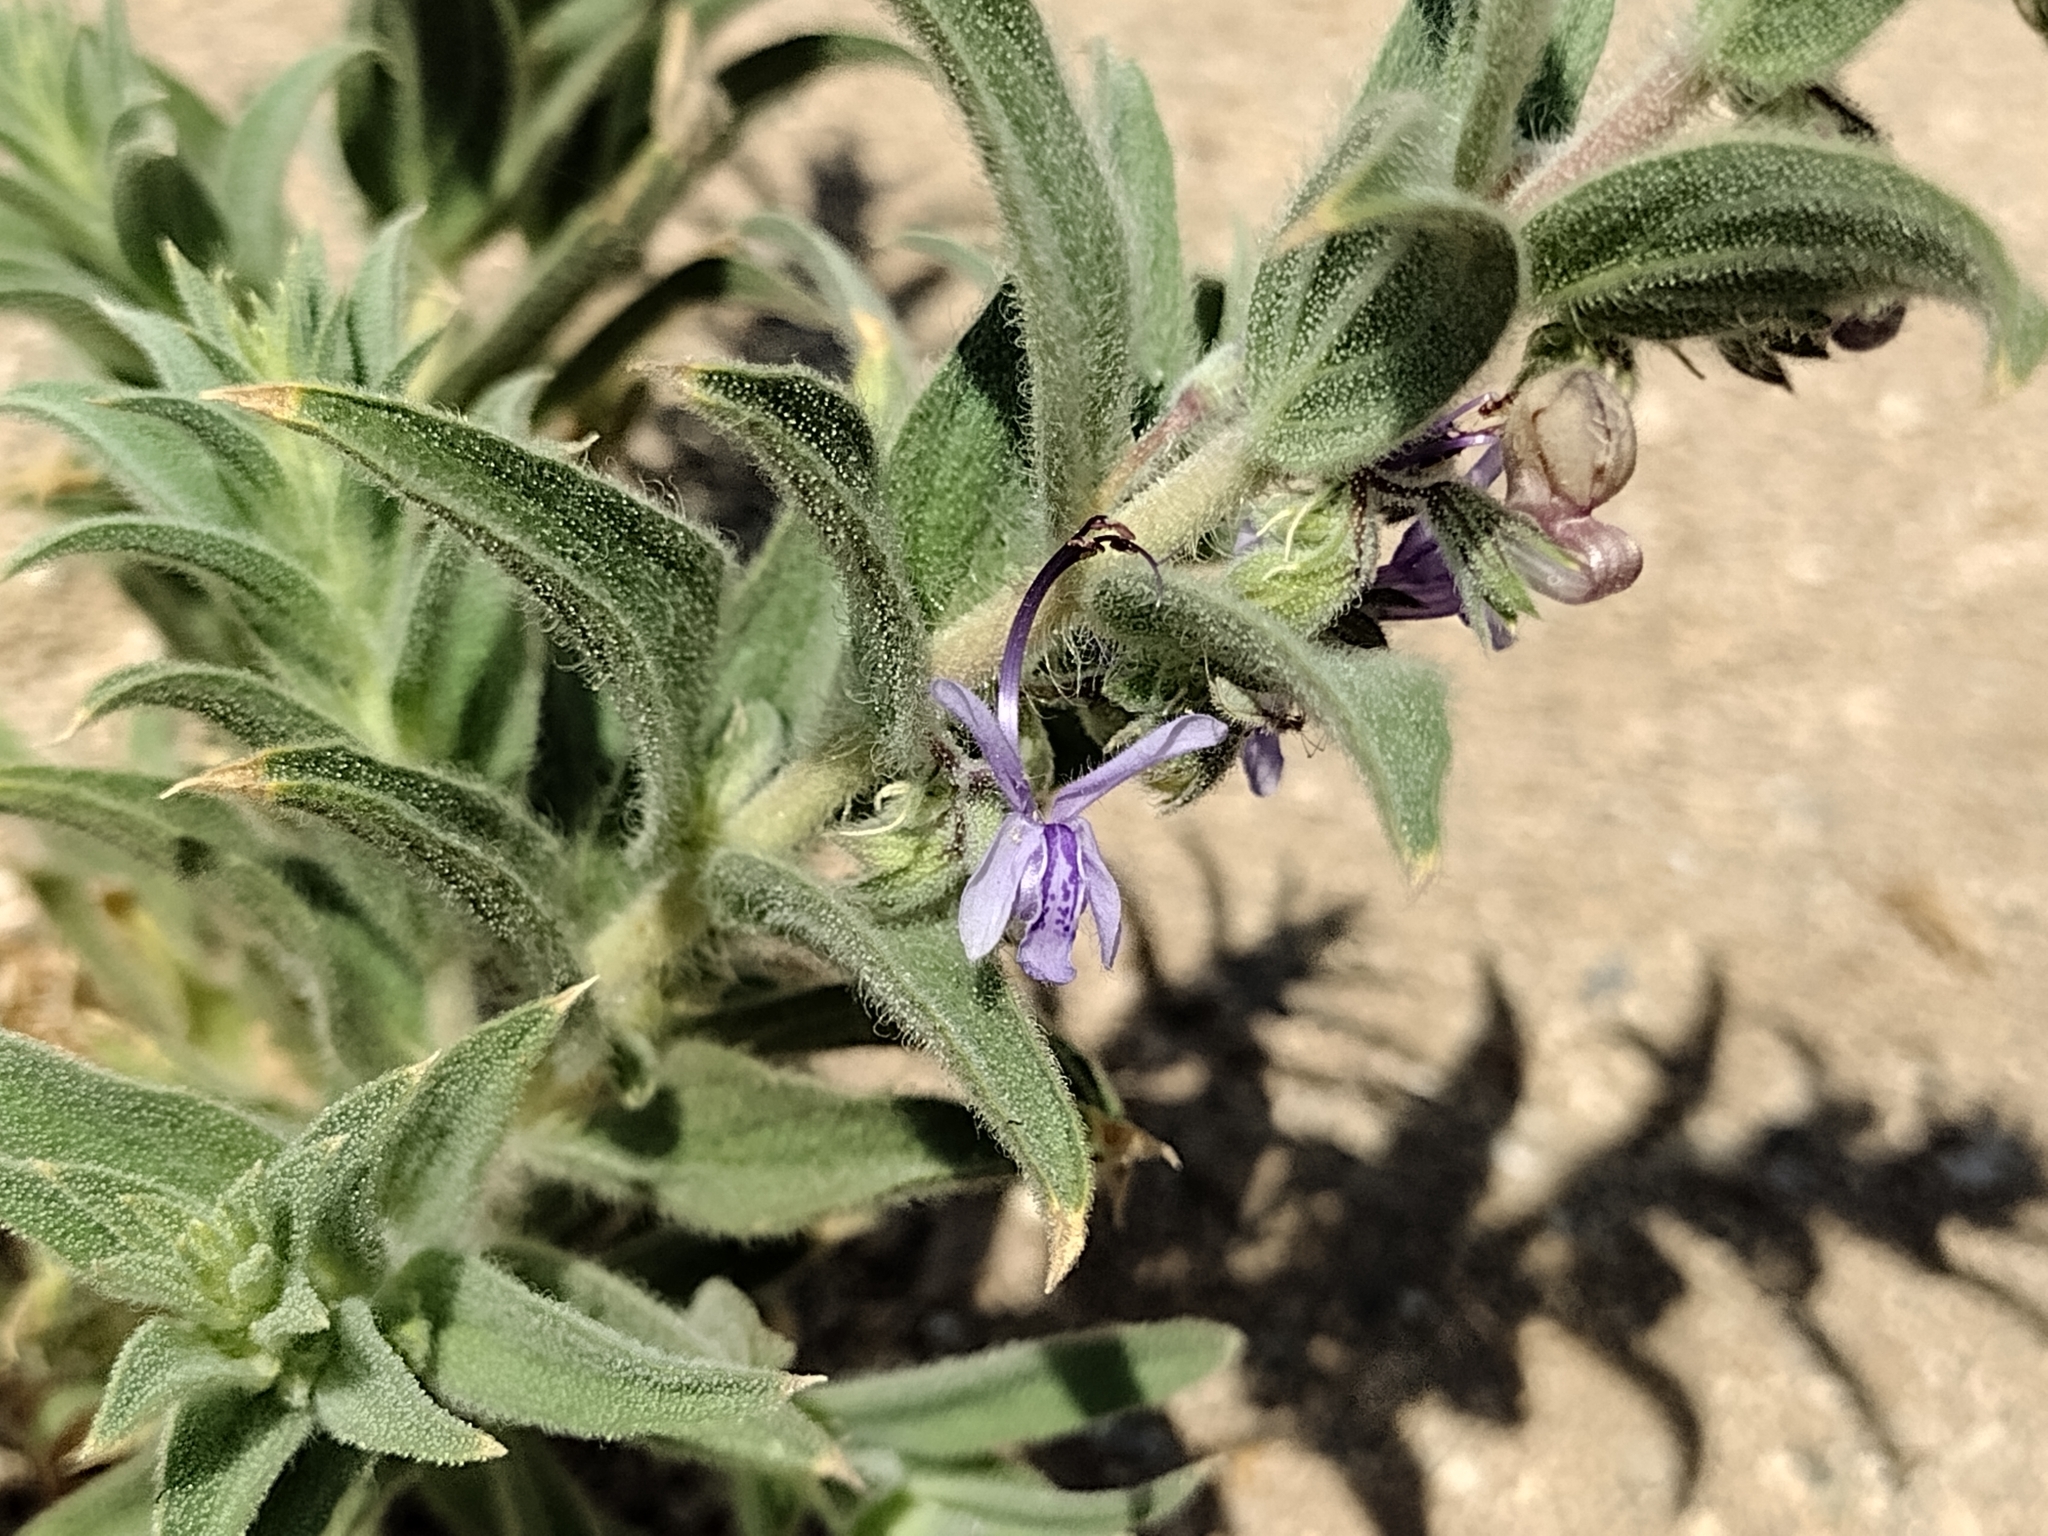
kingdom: Plantae
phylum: Tracheophyta
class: Magnoliopsida
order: Lamiales
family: Lamiaceae
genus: Trichostema
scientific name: Trichostema lanceolatum
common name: Vinegar-weed
